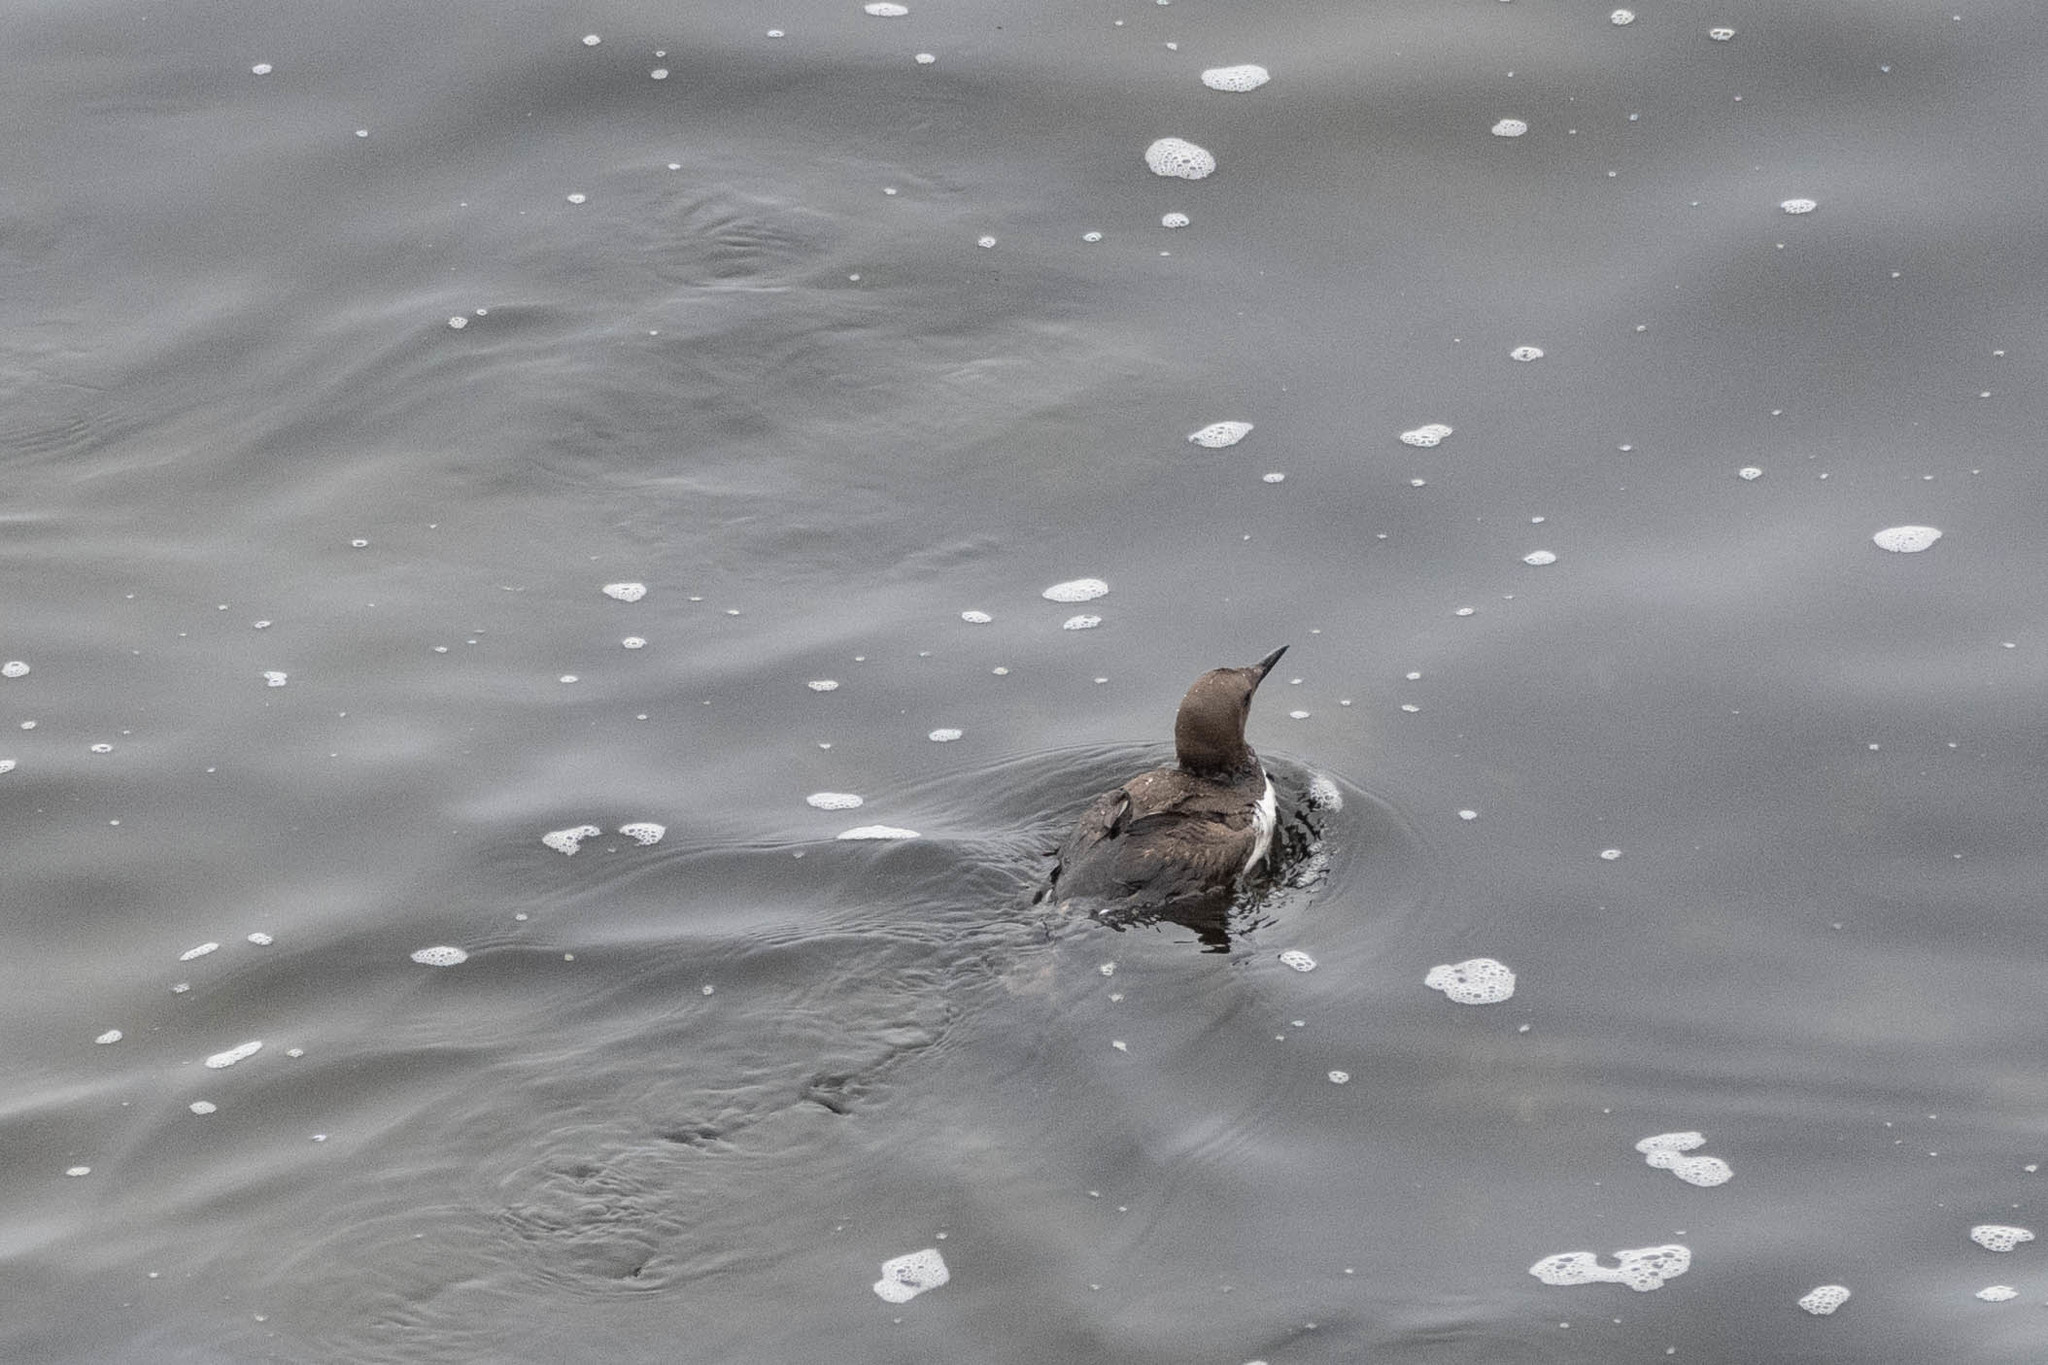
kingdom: Animalia
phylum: Chordata
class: Aves
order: Charadriiformes
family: Alcidae
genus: Uria
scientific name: Uria aalge
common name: Common murre
